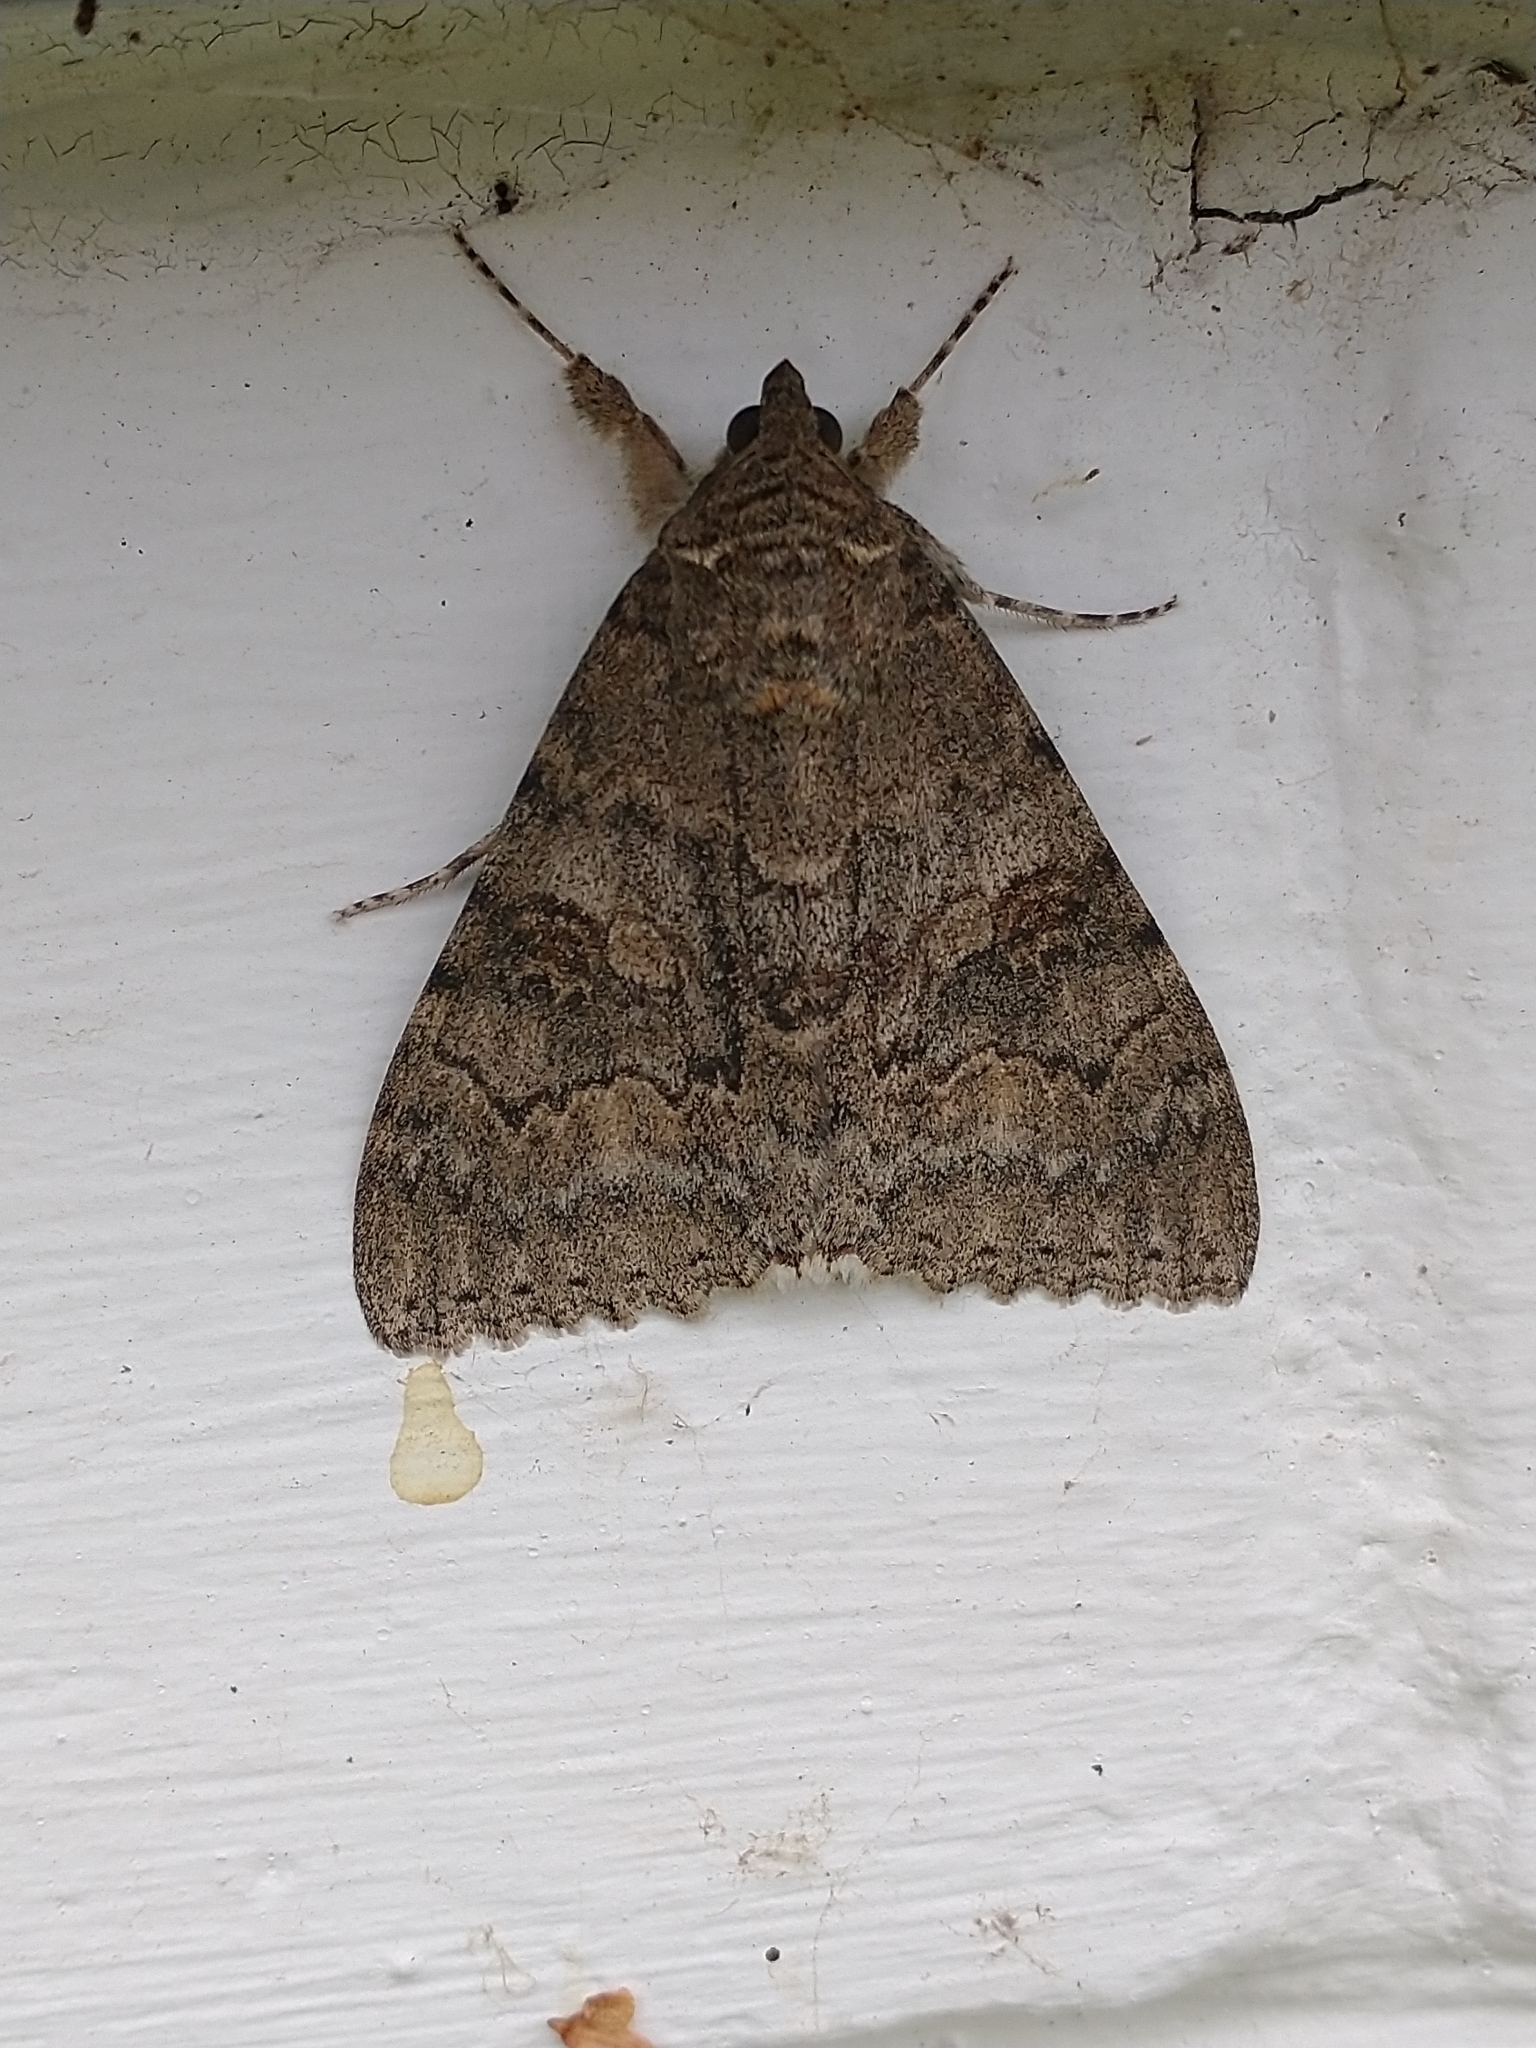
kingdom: Animalia
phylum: Arthropoda
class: Insecta
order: Lepidoptera
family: Erebidae
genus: Catocala
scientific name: Catocala nupta
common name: Red underwing
